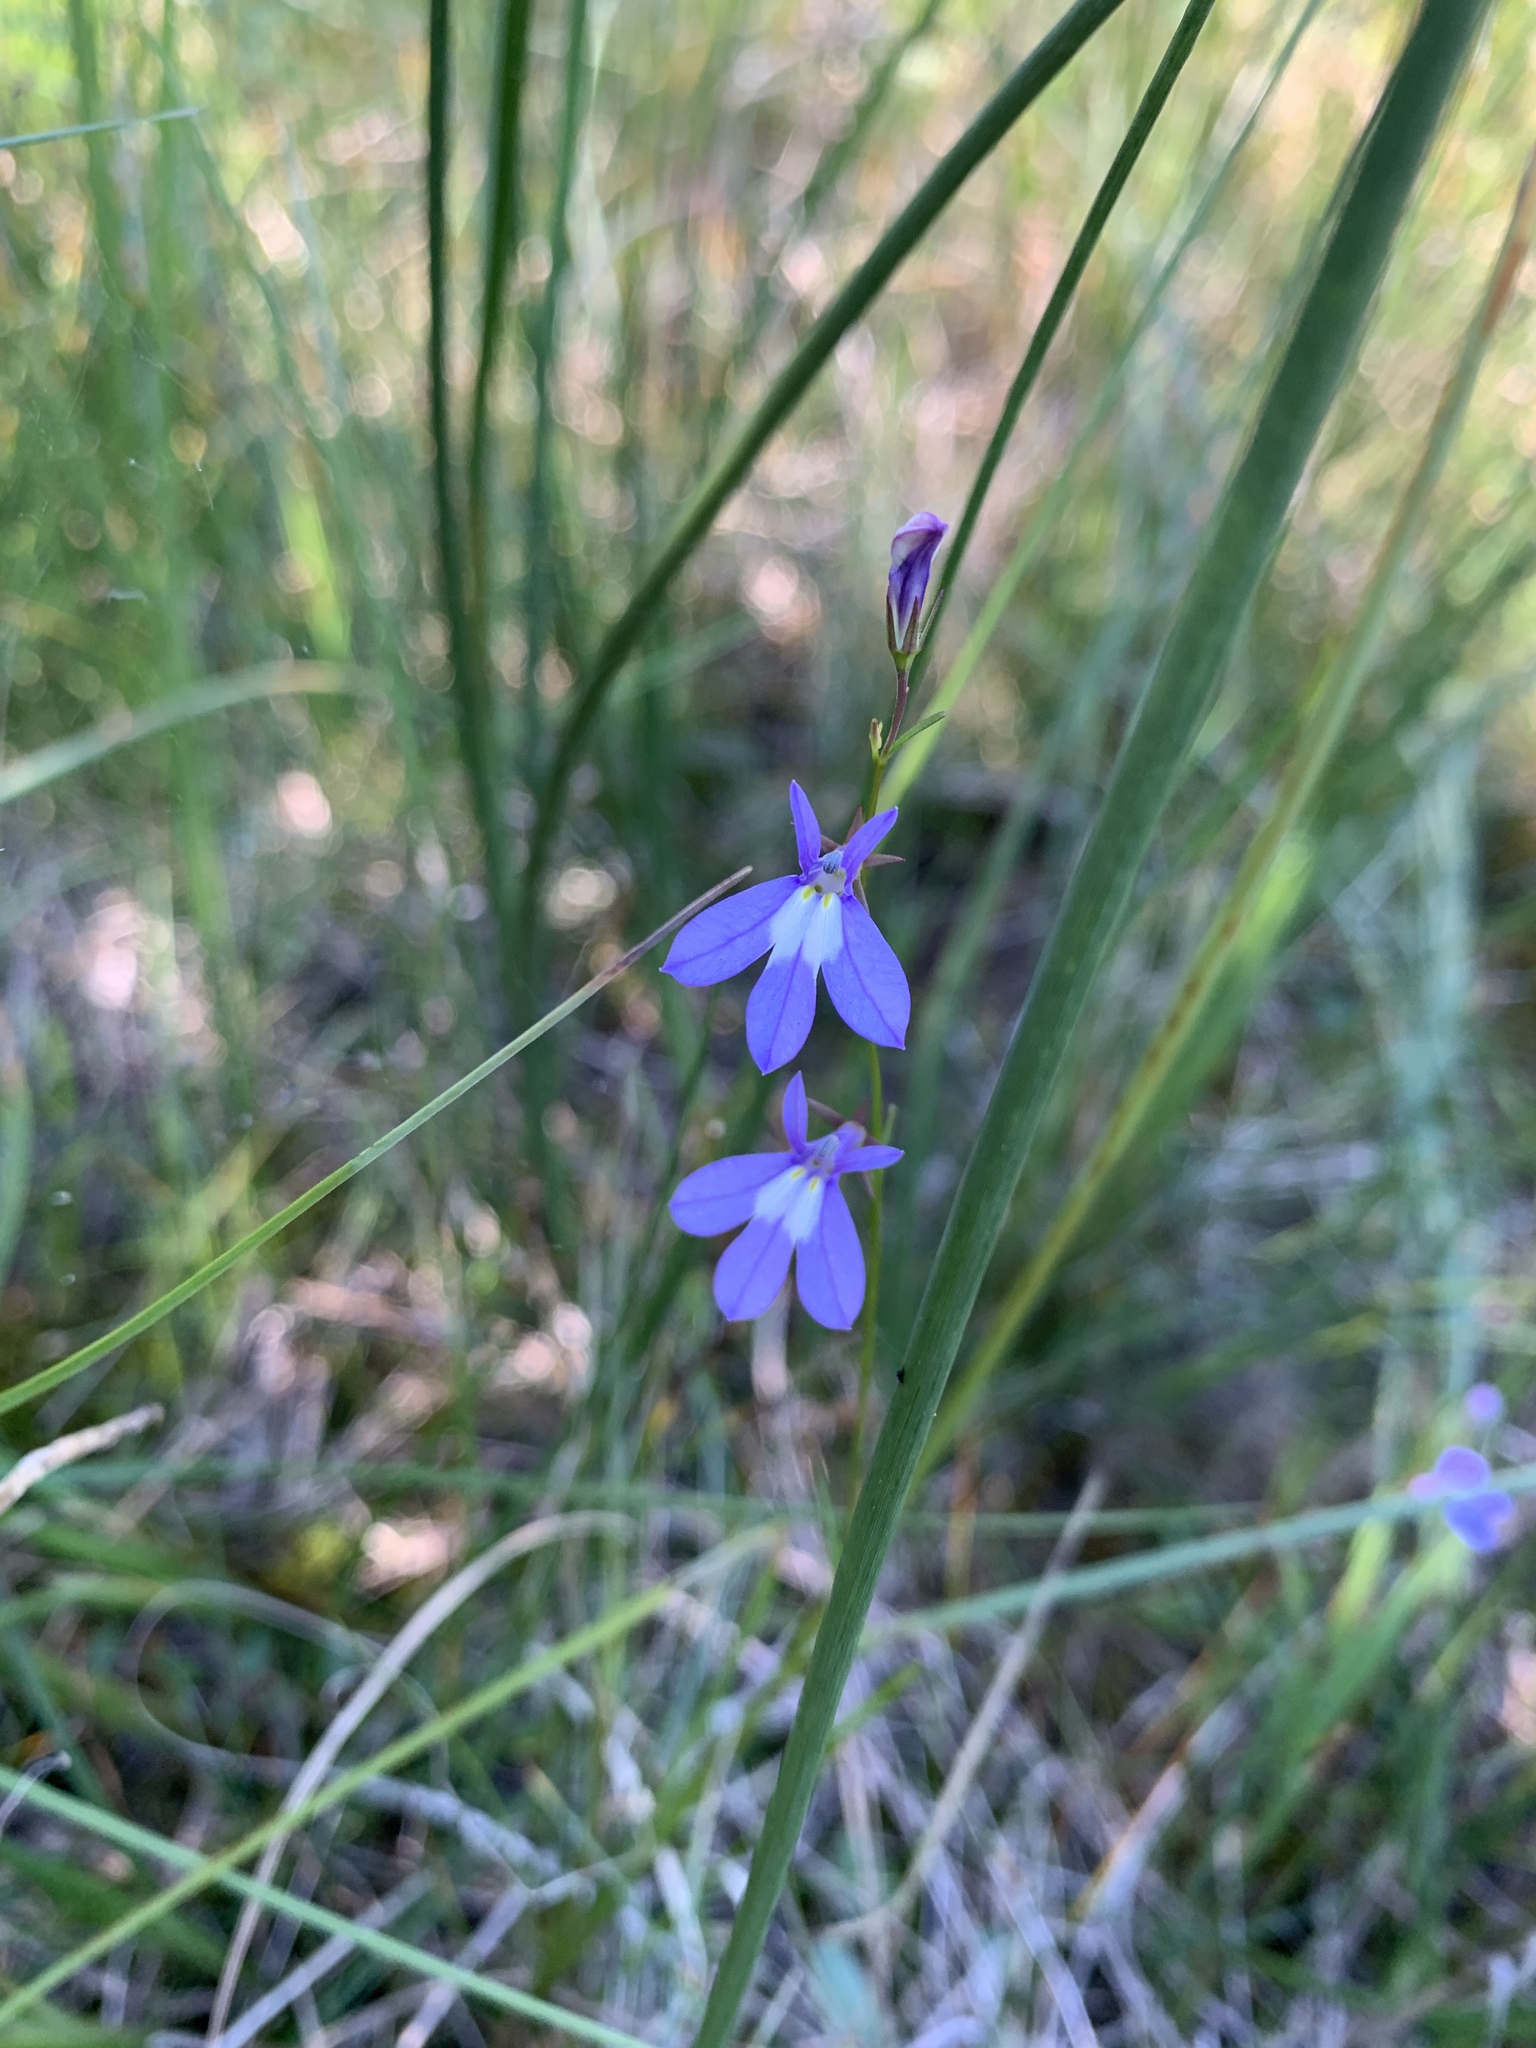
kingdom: Plantae
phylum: Tracheophyta
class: Magnoliopsida
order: Asterales
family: Campanulaceae
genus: Lobelia
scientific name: Lobelia kalmii
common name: Kalm's lobelia
